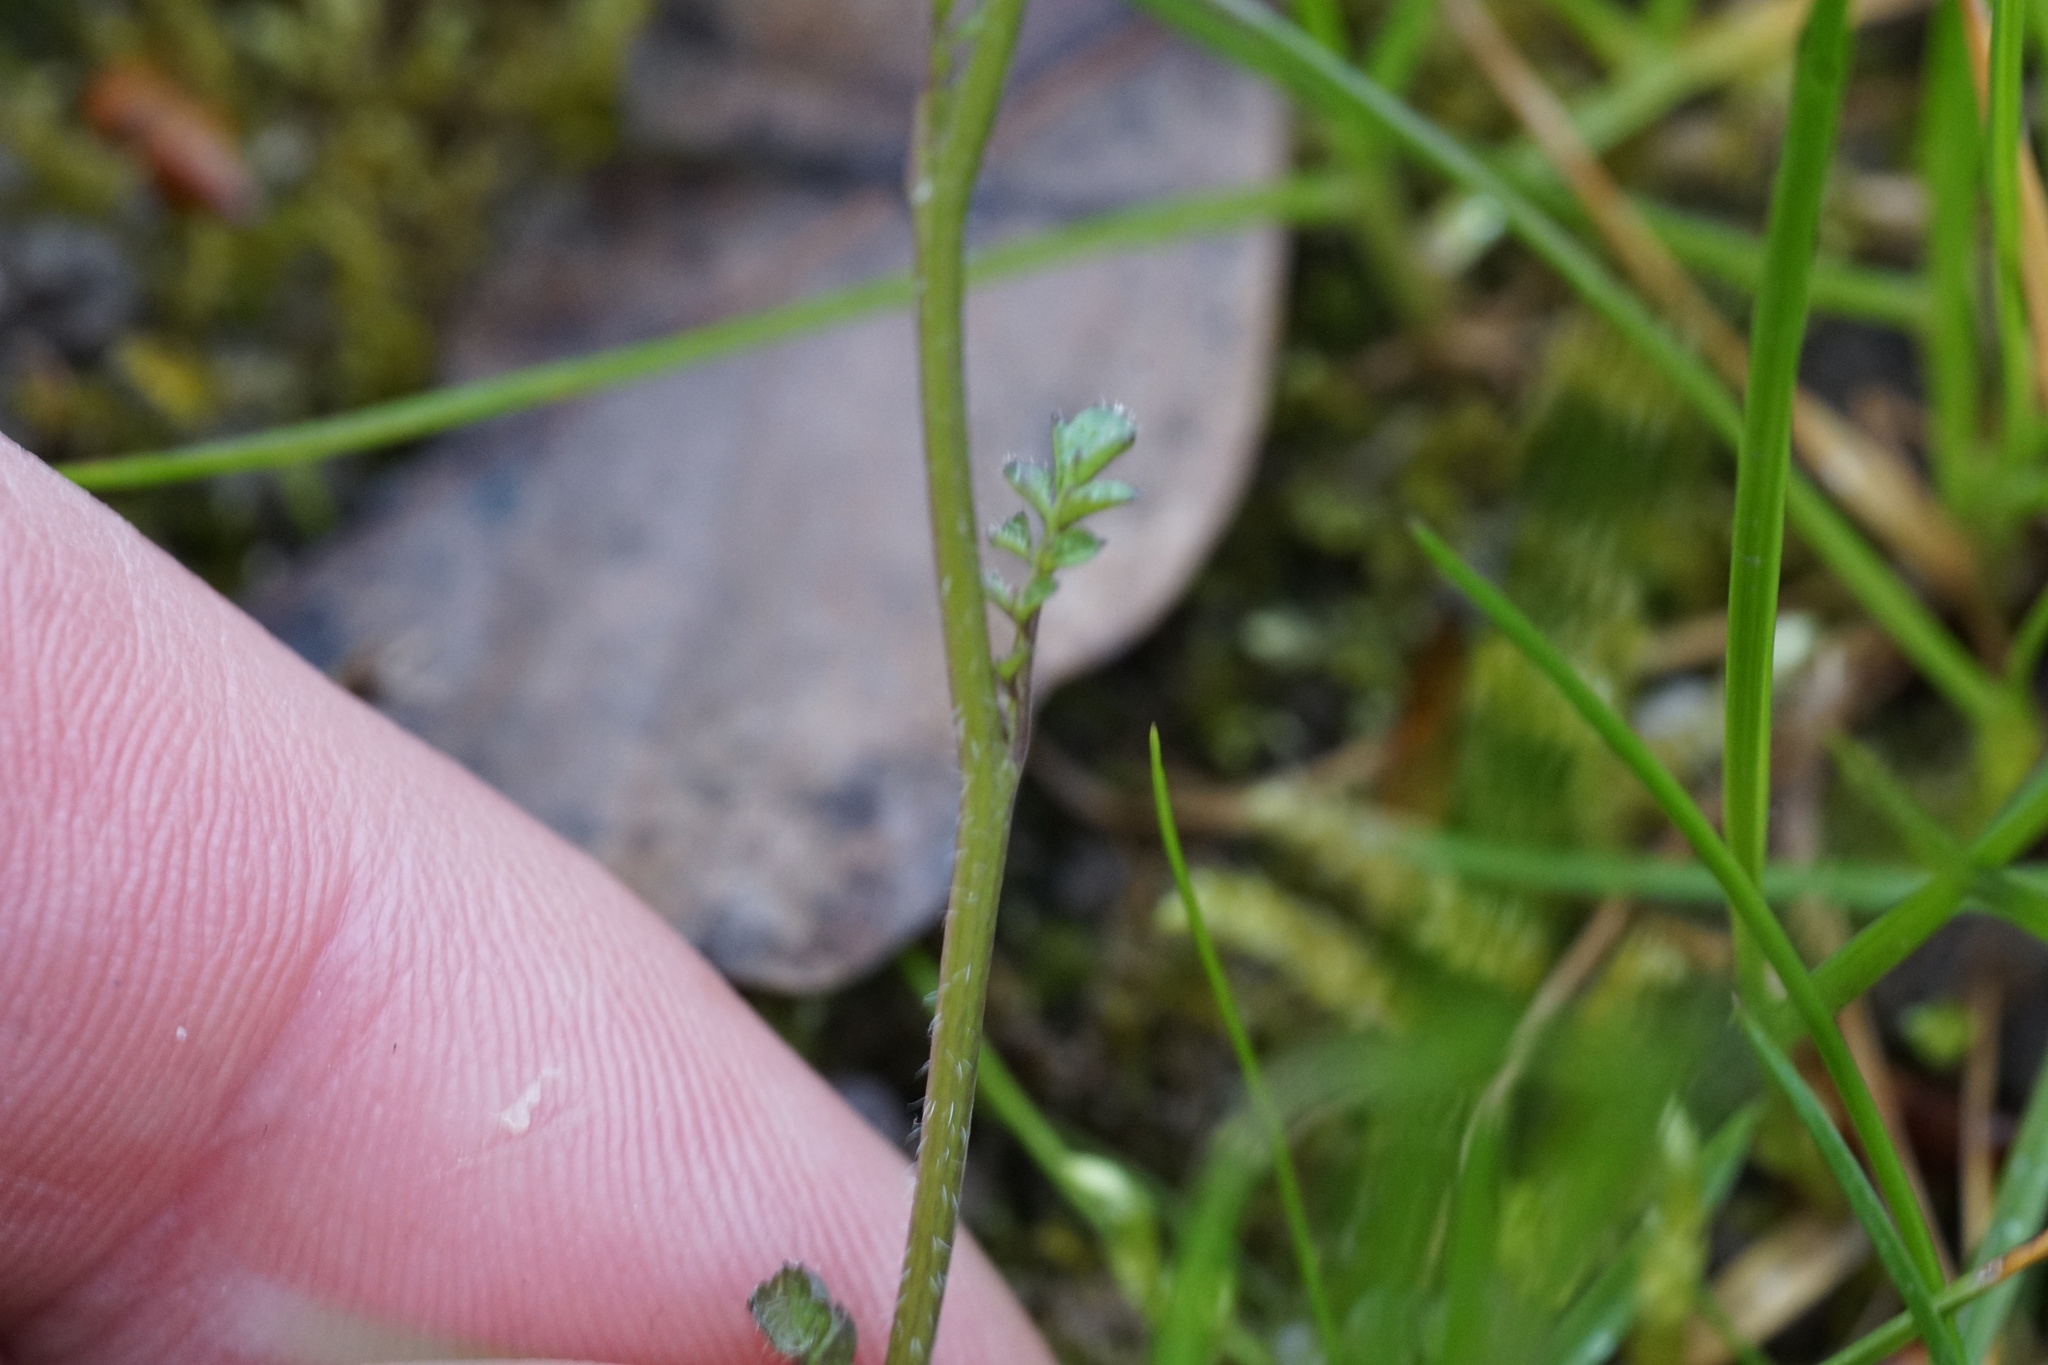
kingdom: Plantae
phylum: Tracheophyta
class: Magnoliopsida
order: Brassicales
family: Brassicaceae
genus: Cardamine
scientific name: Cardamine flexuosa
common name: Woodland bittercress
